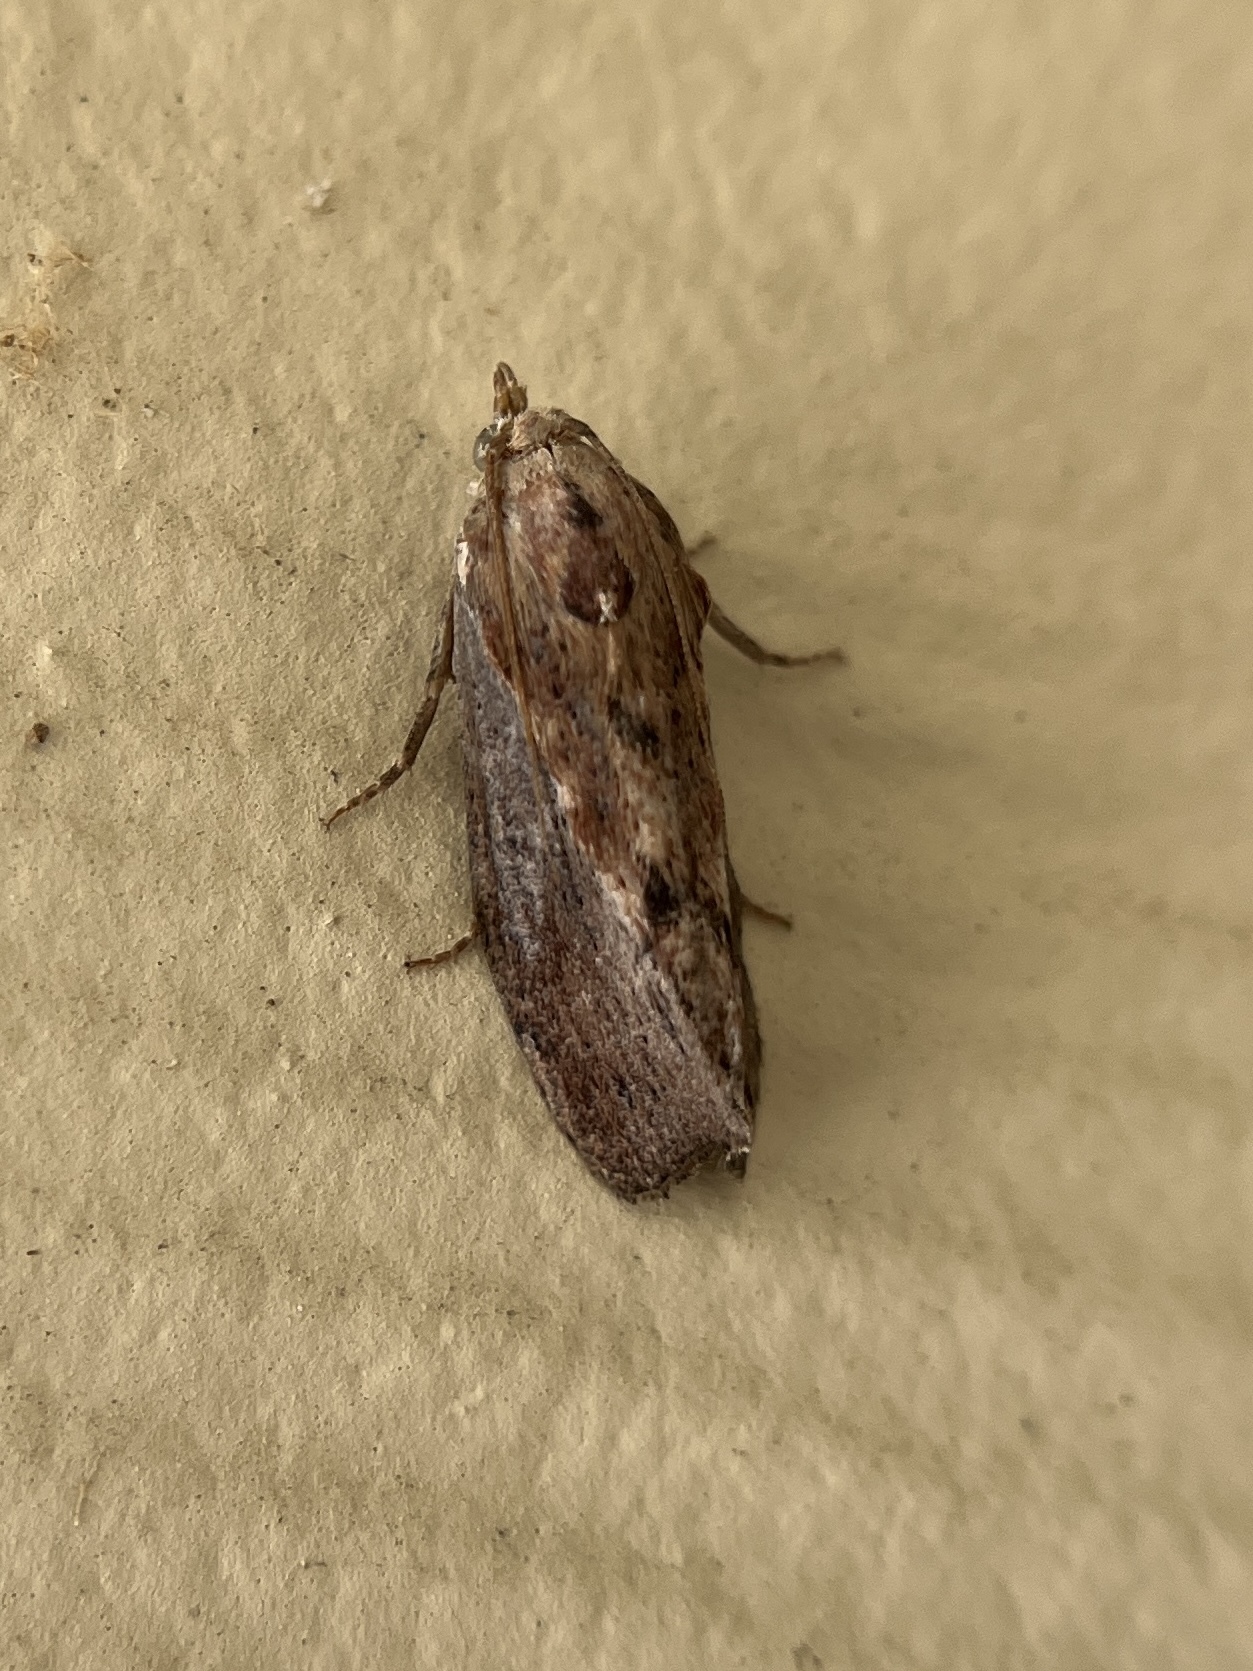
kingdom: Animalia
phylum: Arthropoda
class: Insecta
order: Lepidoptera
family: Pyralidae
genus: Galleria
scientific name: Galleria mellonella
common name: Greater wax moth
